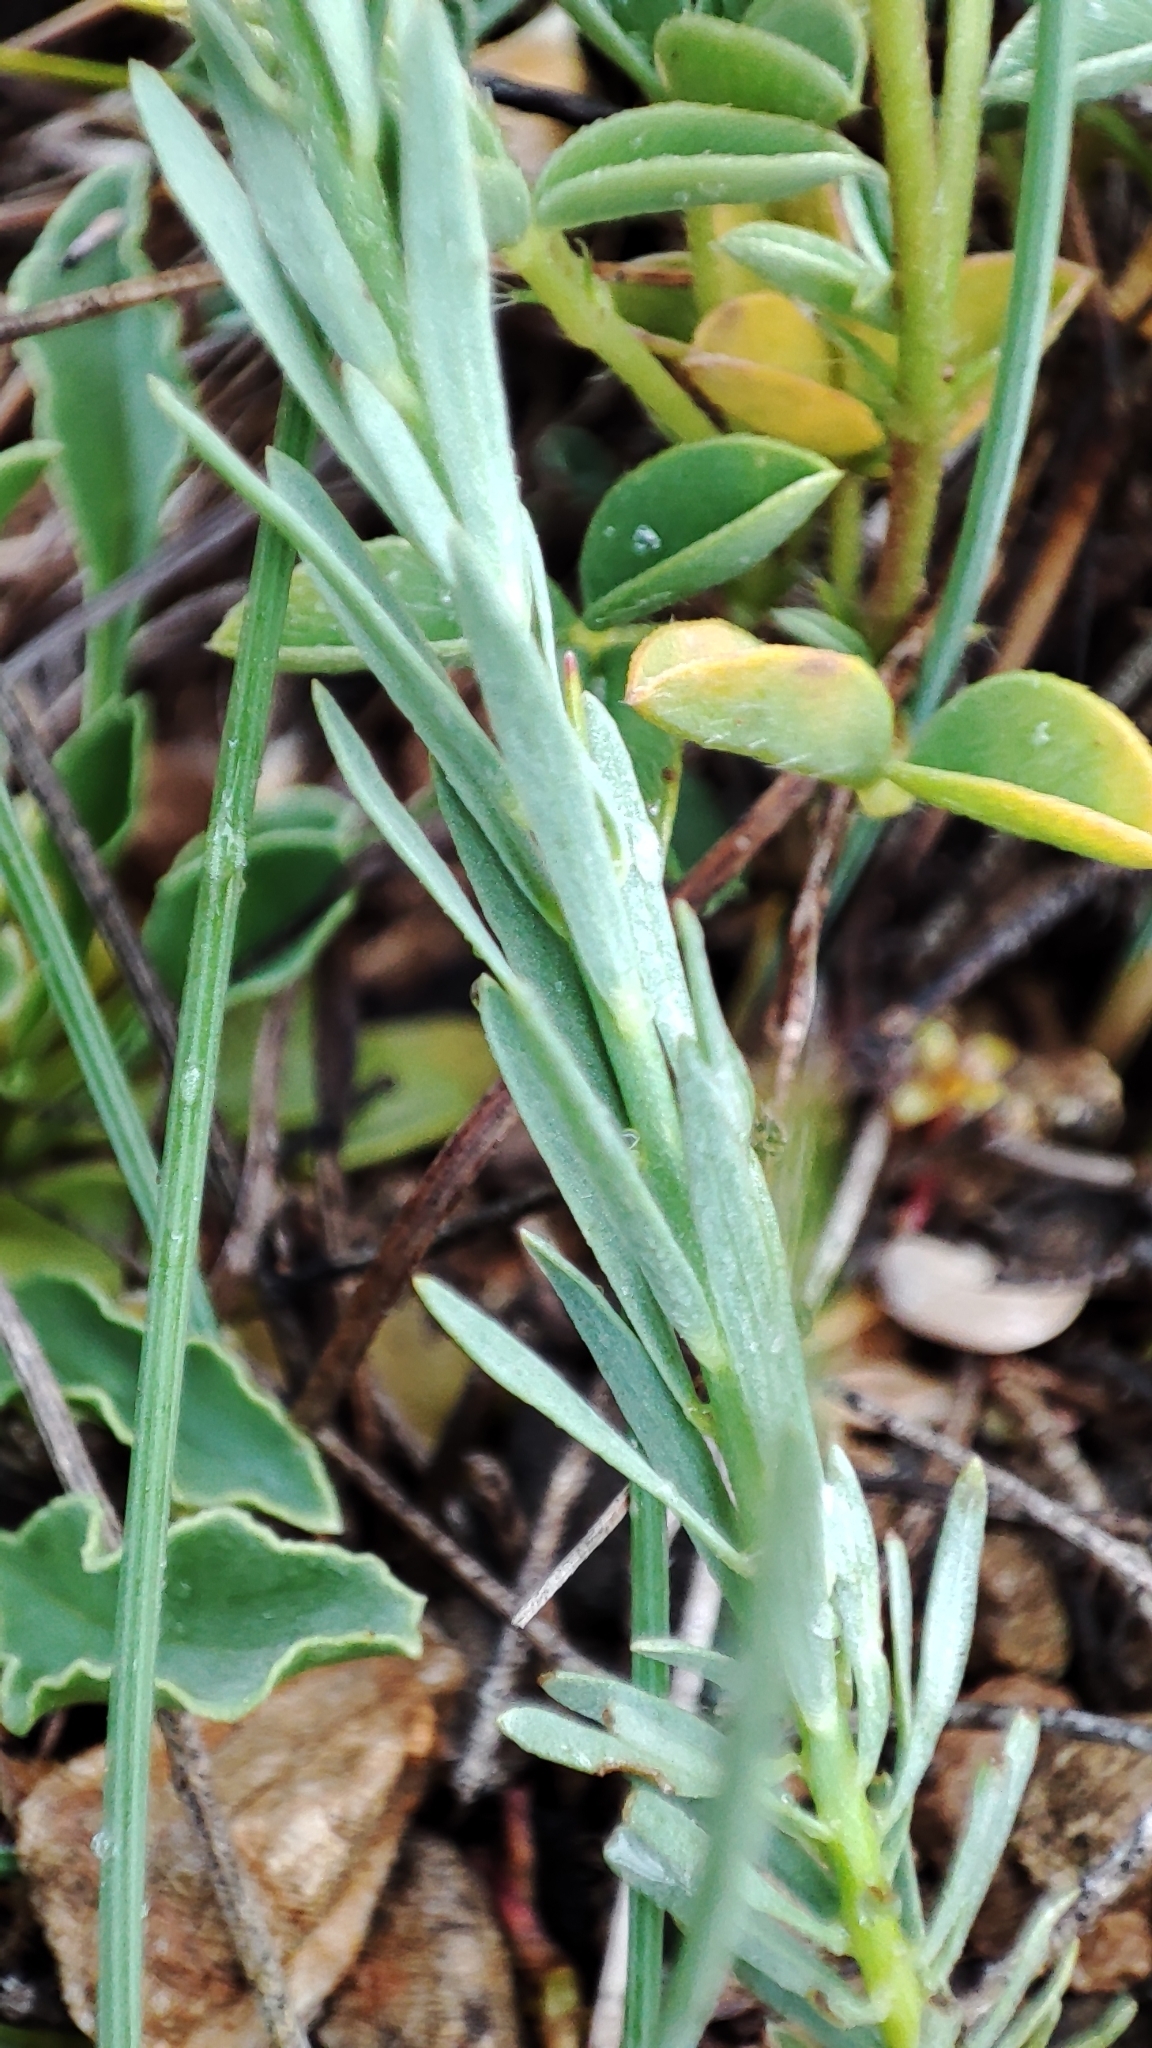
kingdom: Plantae
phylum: Tracheophyta
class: Magnoliopsida
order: Malvales
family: Thymelaeaceae
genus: Thymelaea
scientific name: Thymelaea pubescens
